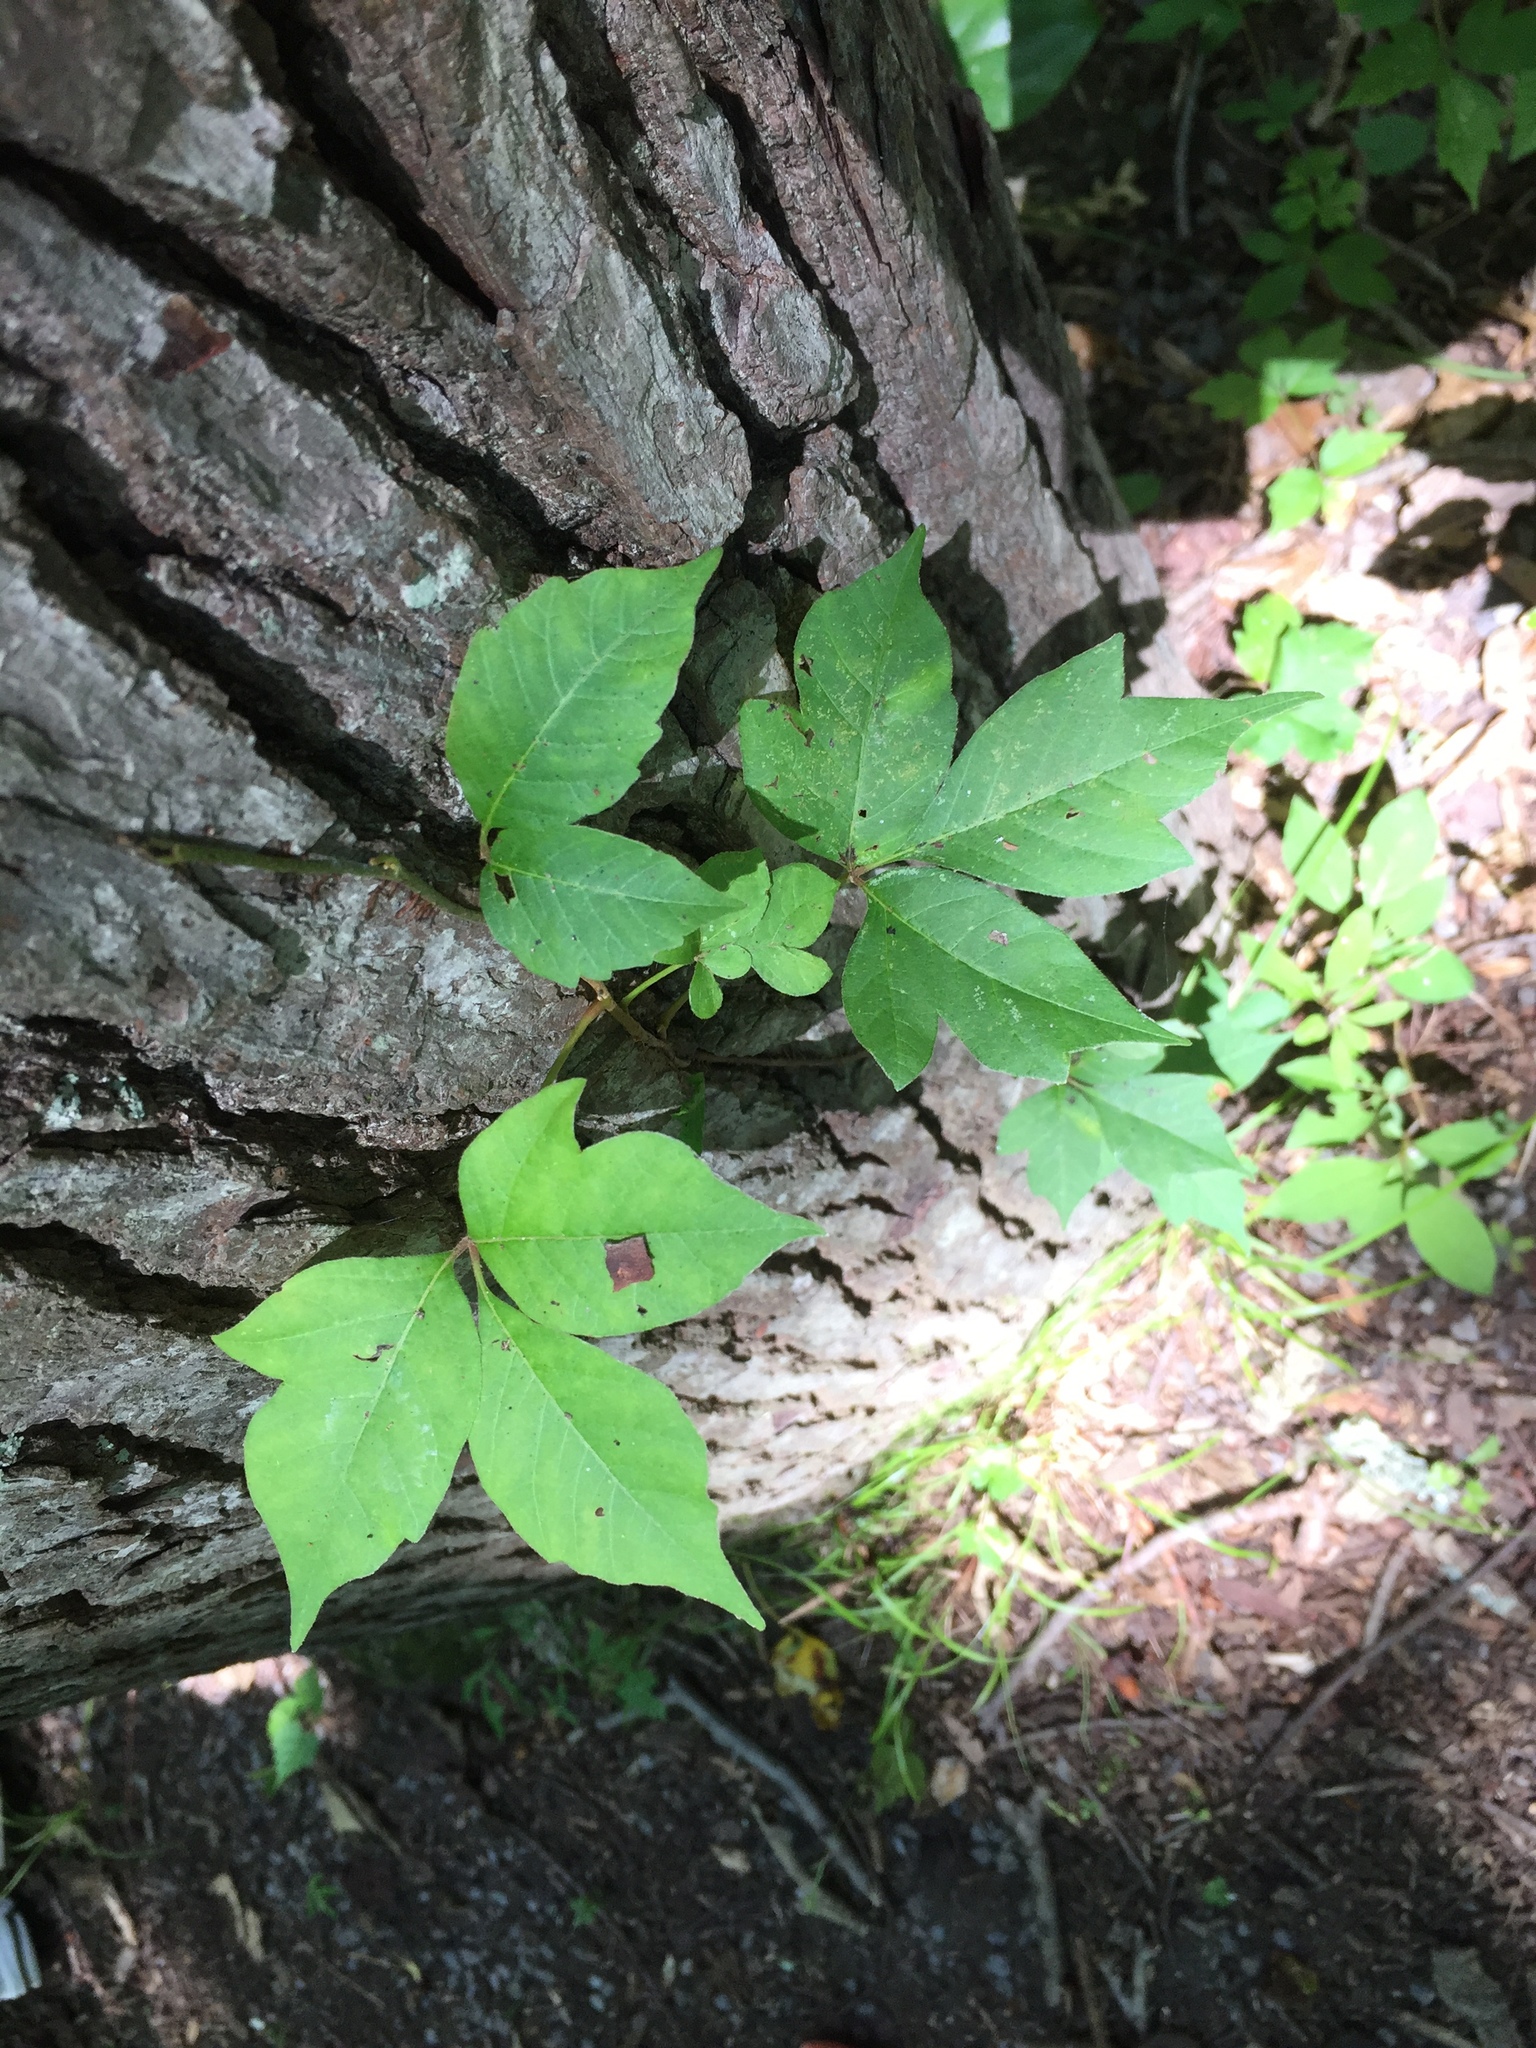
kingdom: Plantae
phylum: Tracheophyta
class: Magnoliopsida
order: Sapindales
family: Anacardiaceae
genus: Toxicodendron
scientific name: Toxicodendron radicans
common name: Poison ivy
